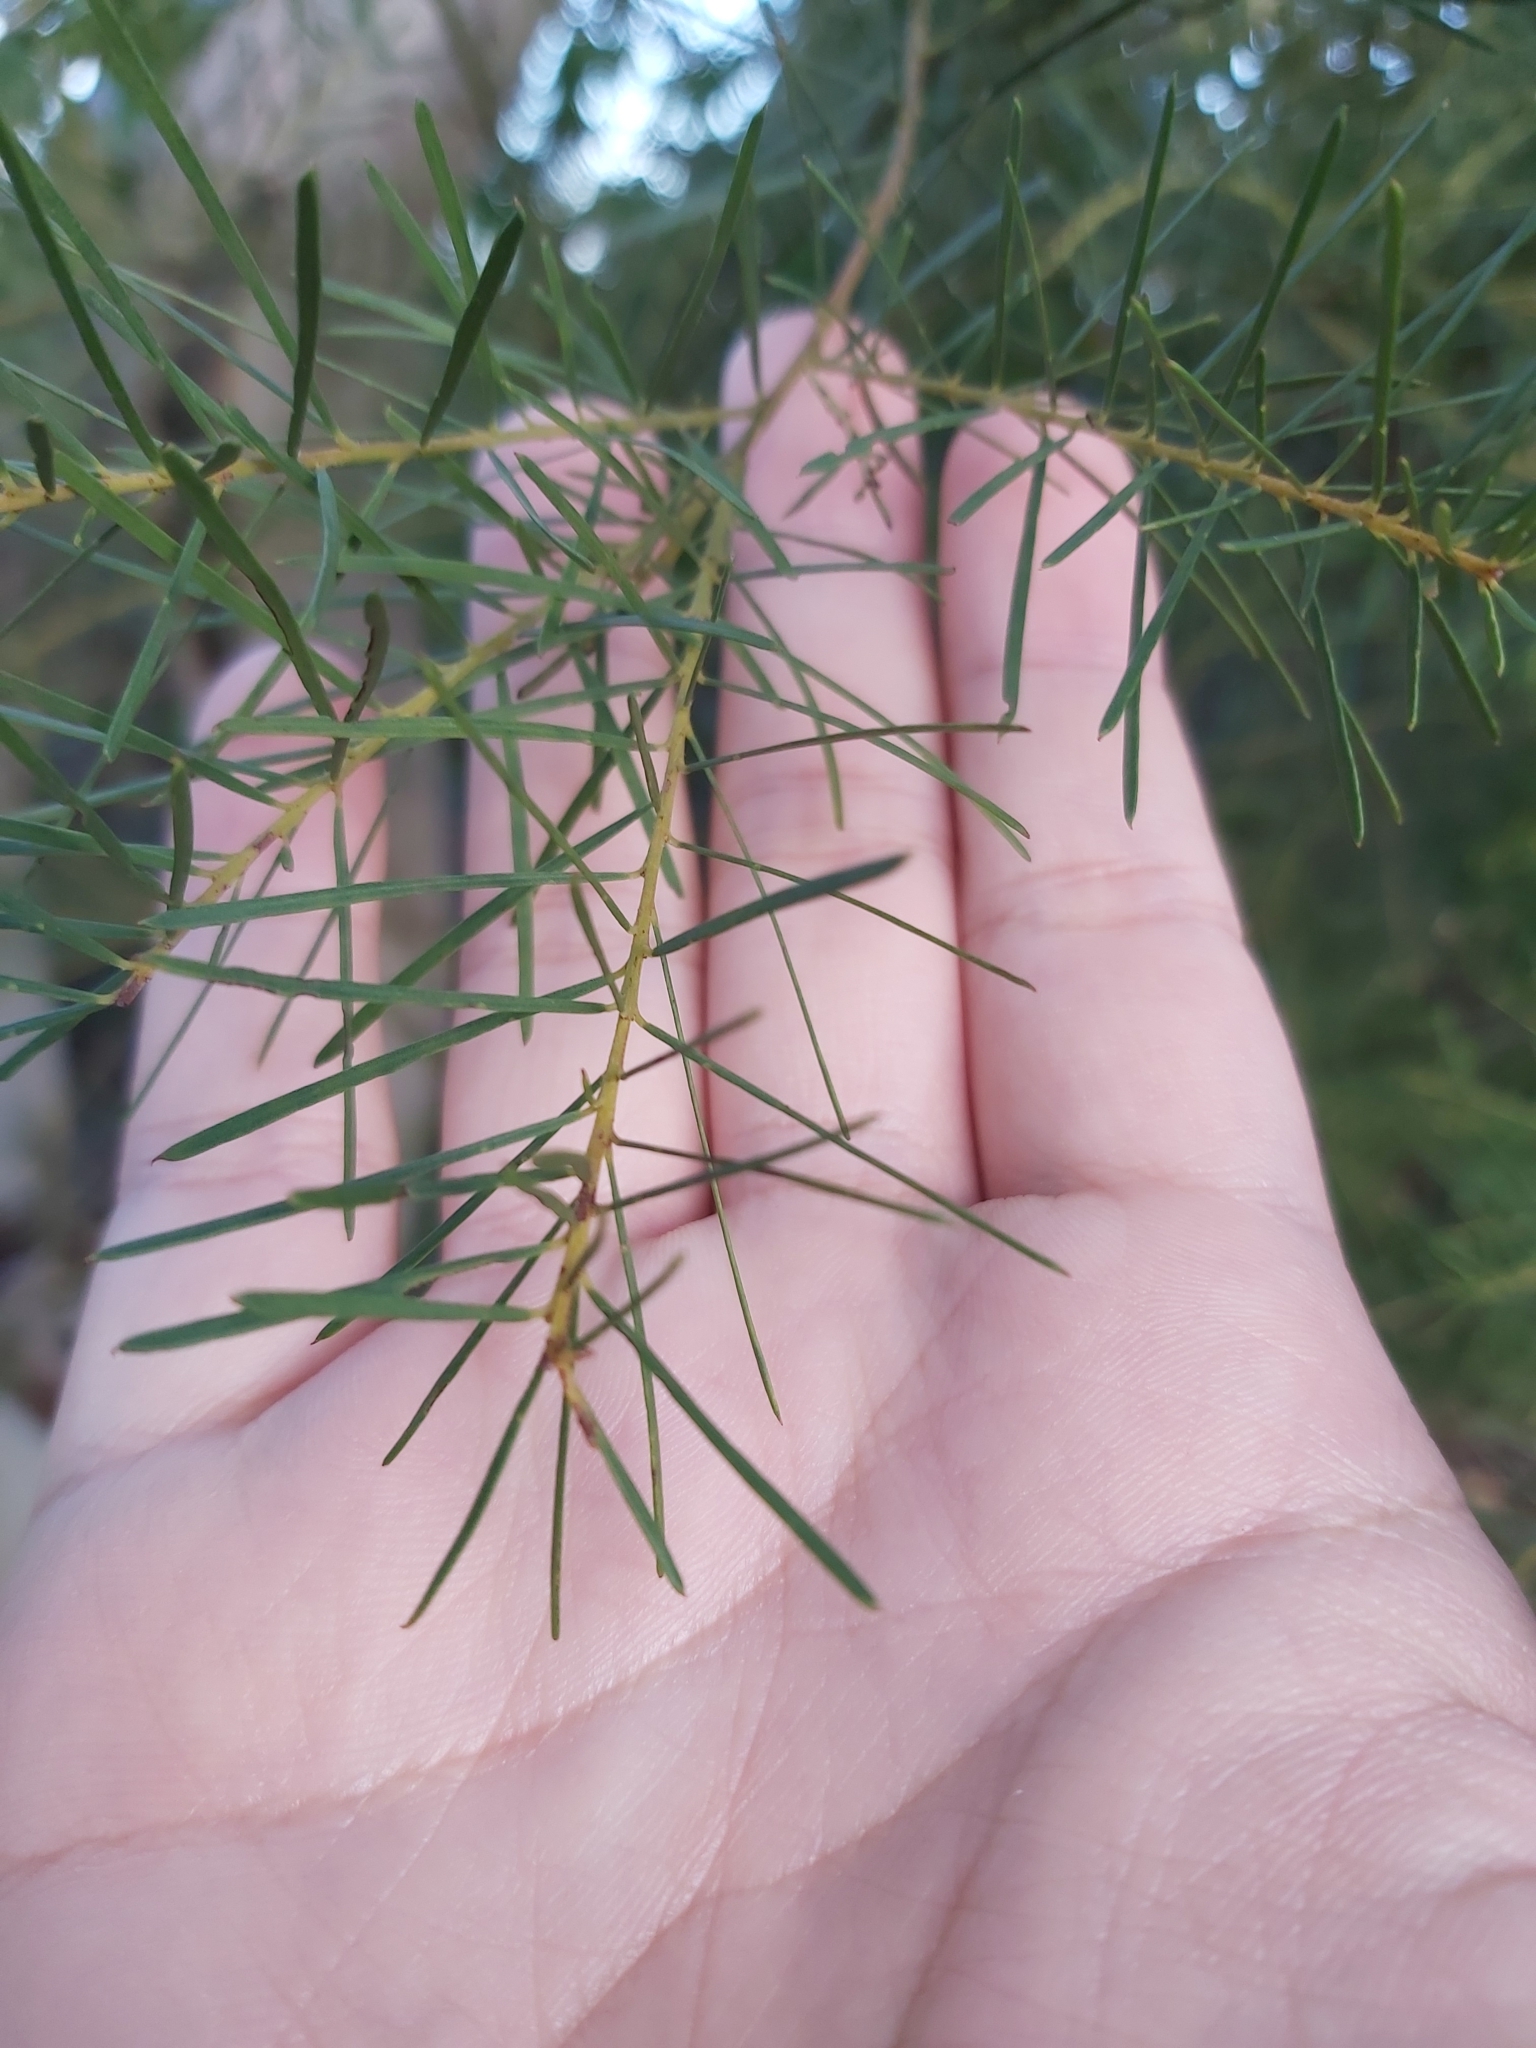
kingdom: Plantae
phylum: Tracheophyta
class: Magnoliopsida
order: Fabales
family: Fabaceae
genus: Acacia
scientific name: Acacia linifolia
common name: White wattle
